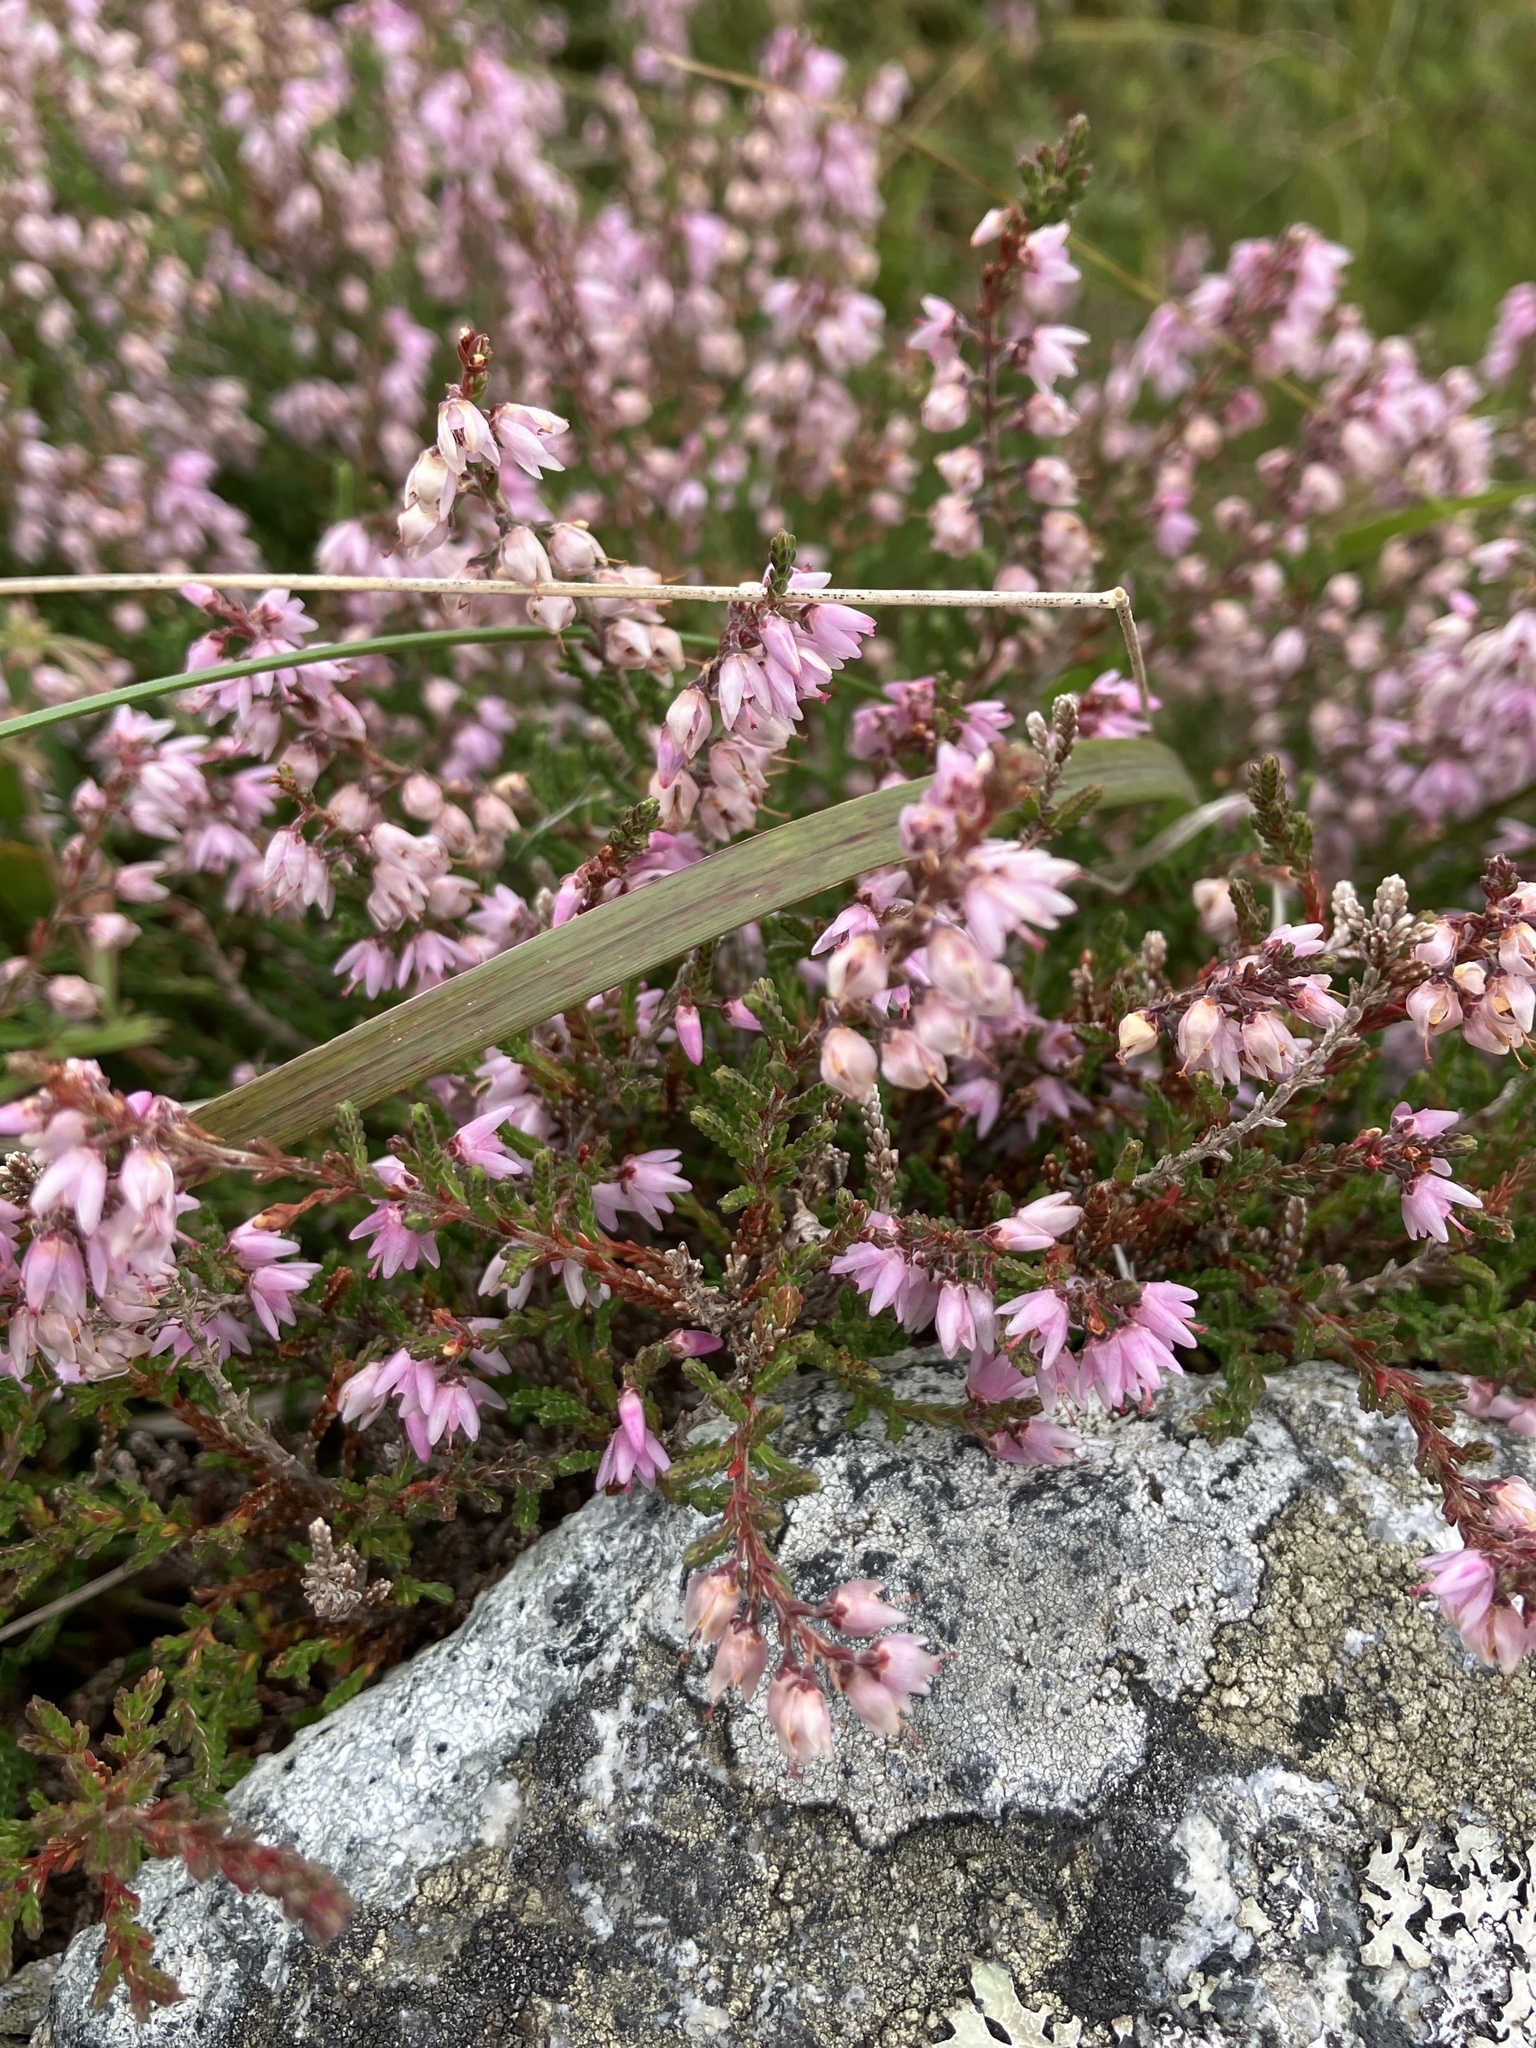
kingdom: Plantae
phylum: Tracheophyta
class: Magnoliopsida
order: Ericales
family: Ericaceae
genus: Calluna
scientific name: Calluna vulgaris
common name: Heather
